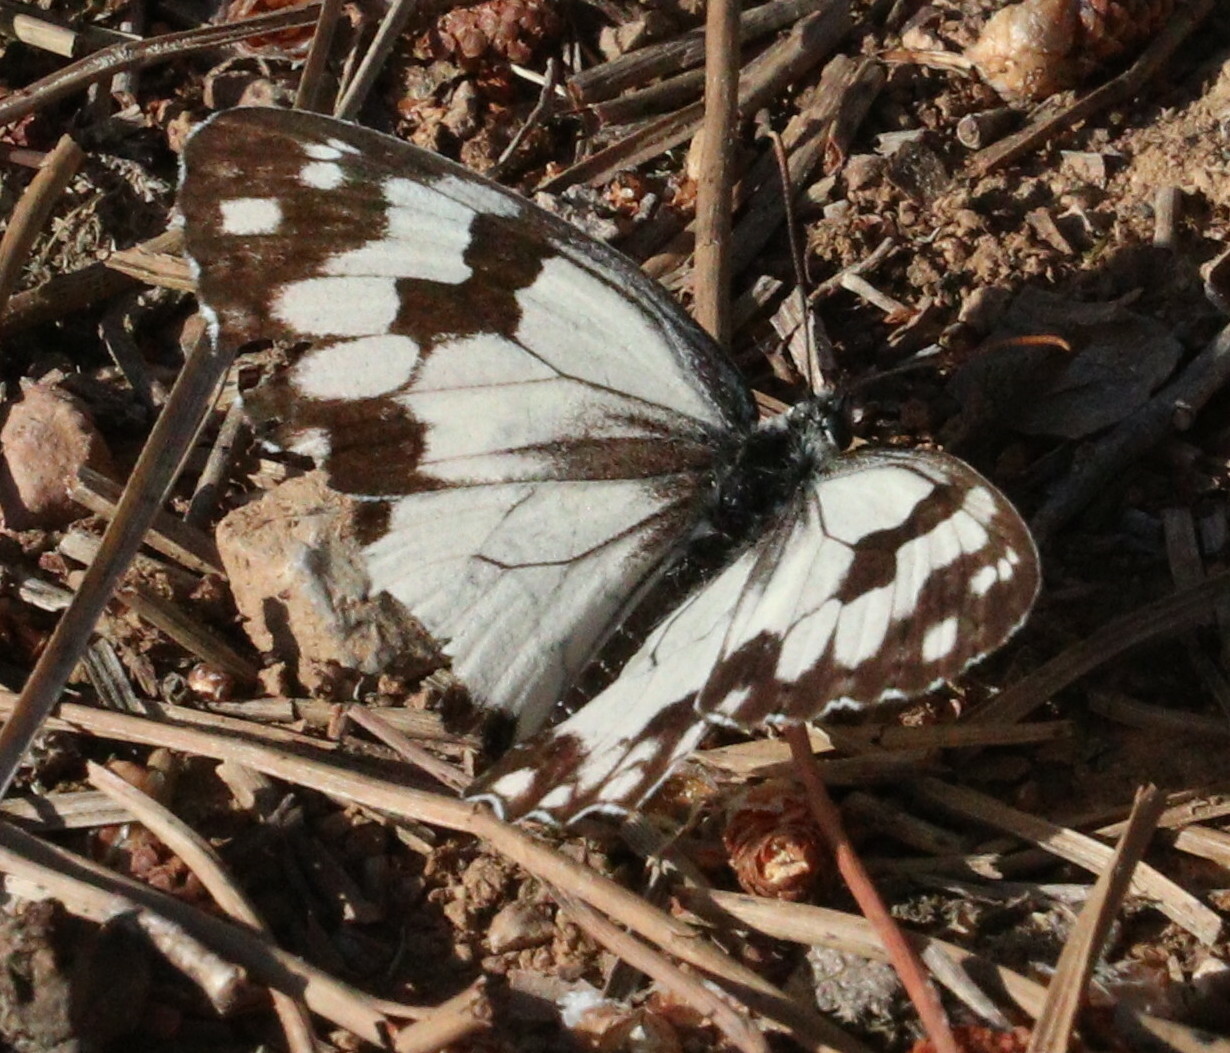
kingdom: Animalia
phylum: Arthropoda
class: Insecta
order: Lepidoptera
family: Nymphalidae
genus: Melanargia
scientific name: Melanargia lachesis
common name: Iberian marbled white
